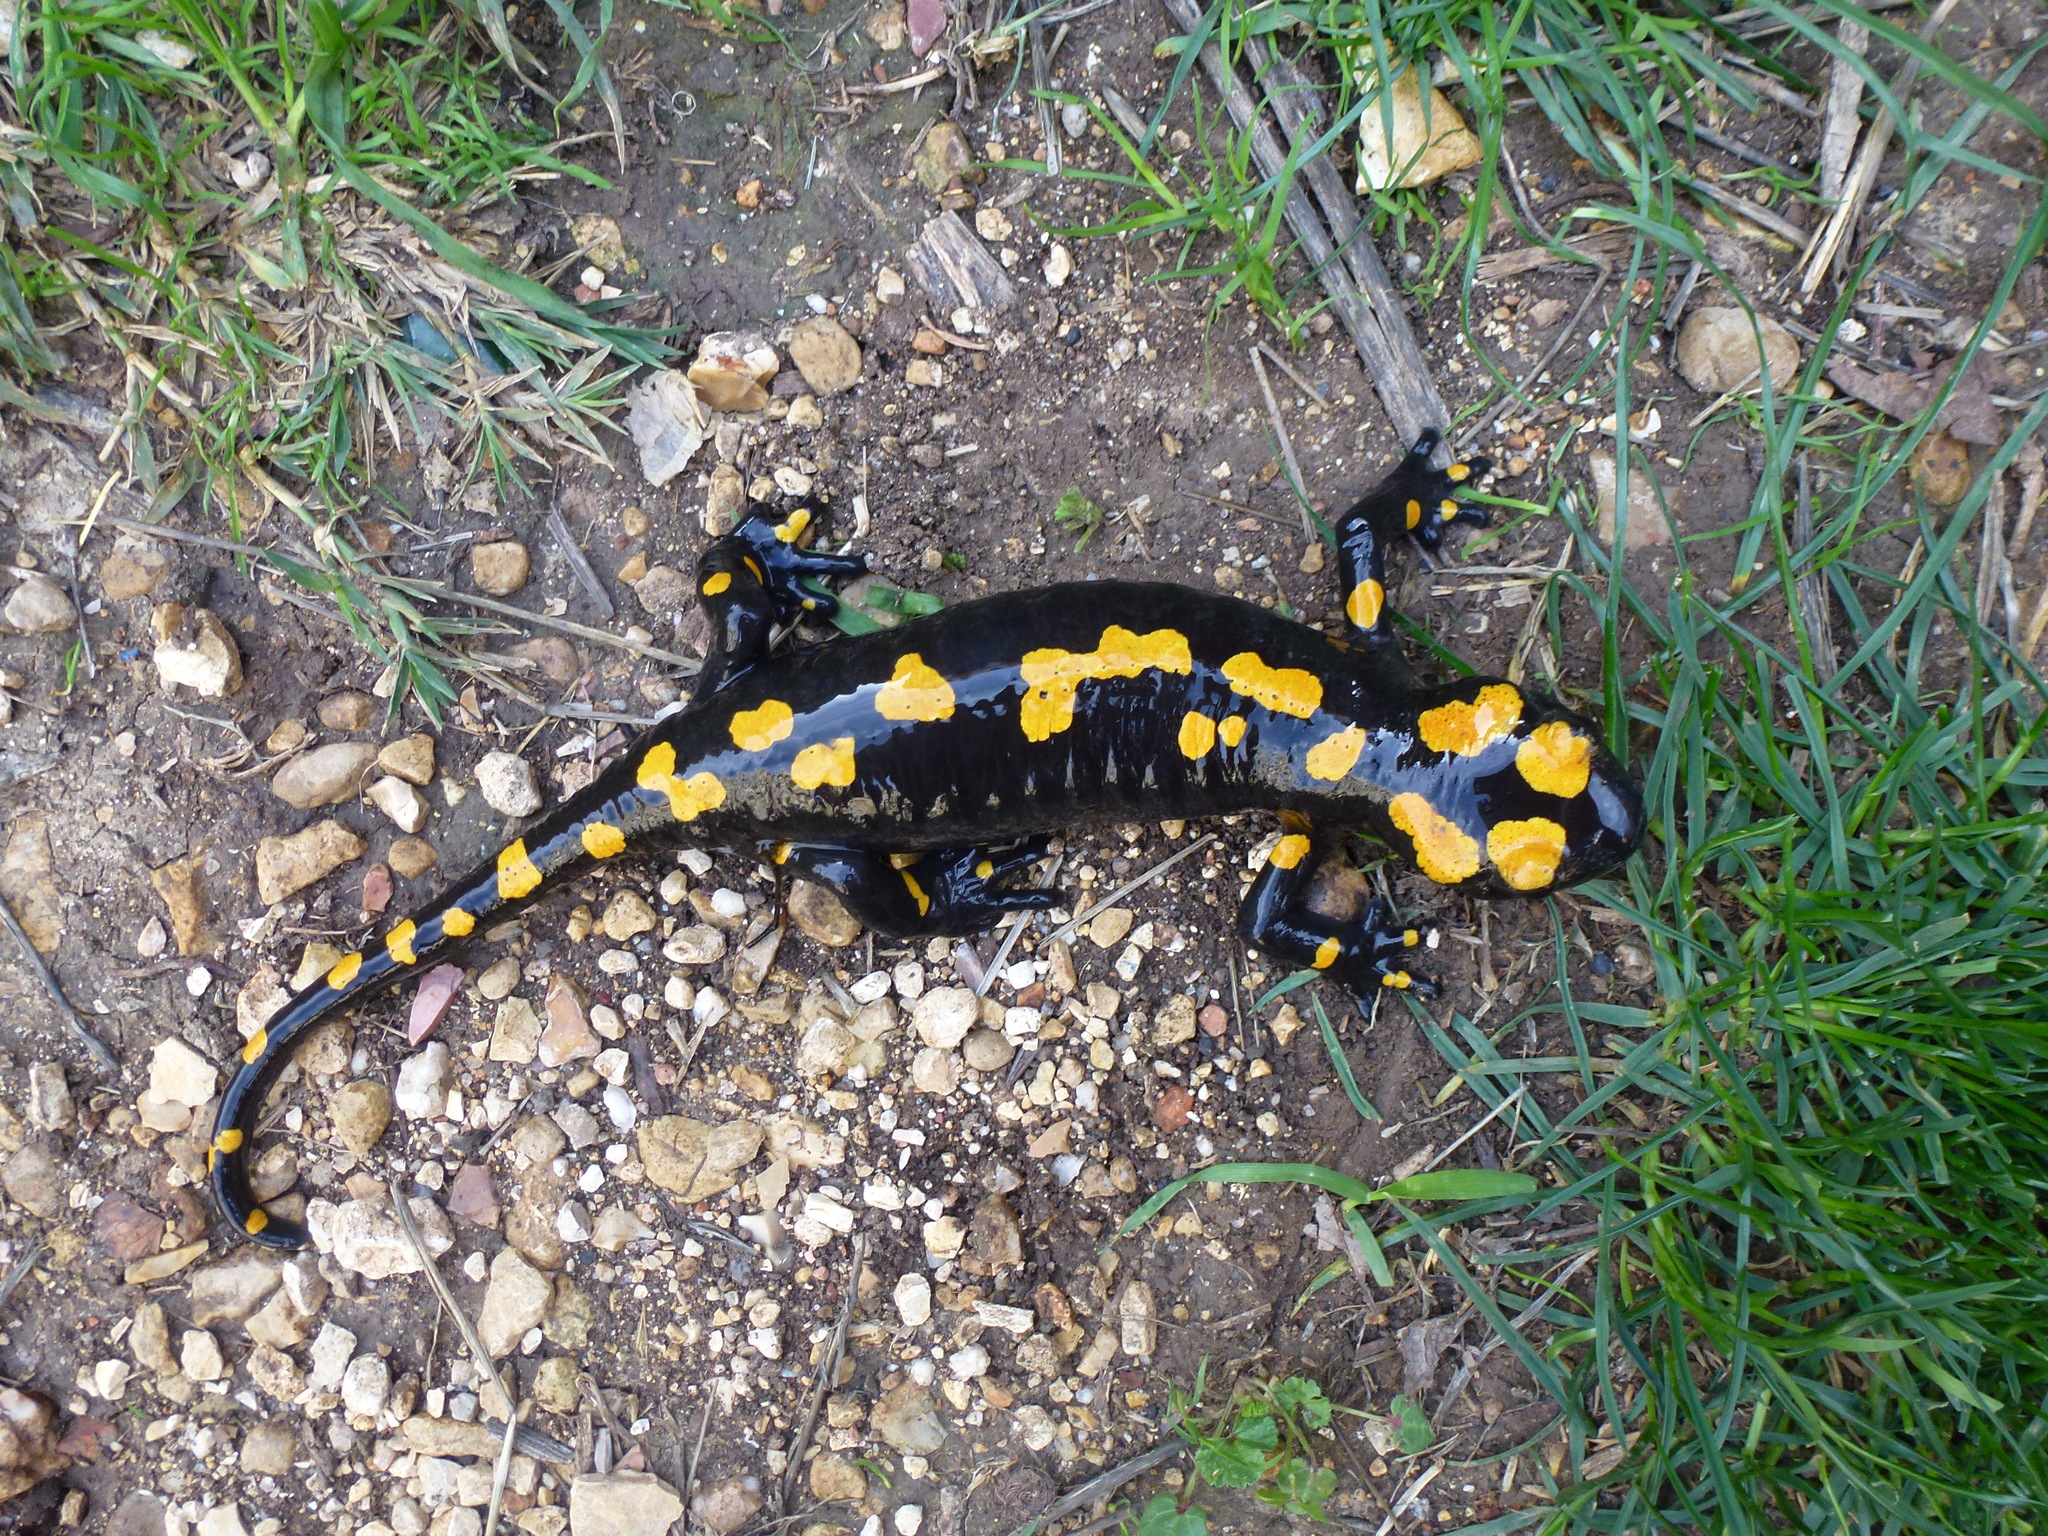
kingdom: Animalia
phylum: Chordata
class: Amphibia
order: Caudata
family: Salamandridae
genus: Salamandra
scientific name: Salamandra infraimmaculata
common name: Near-eastern fire salamander
